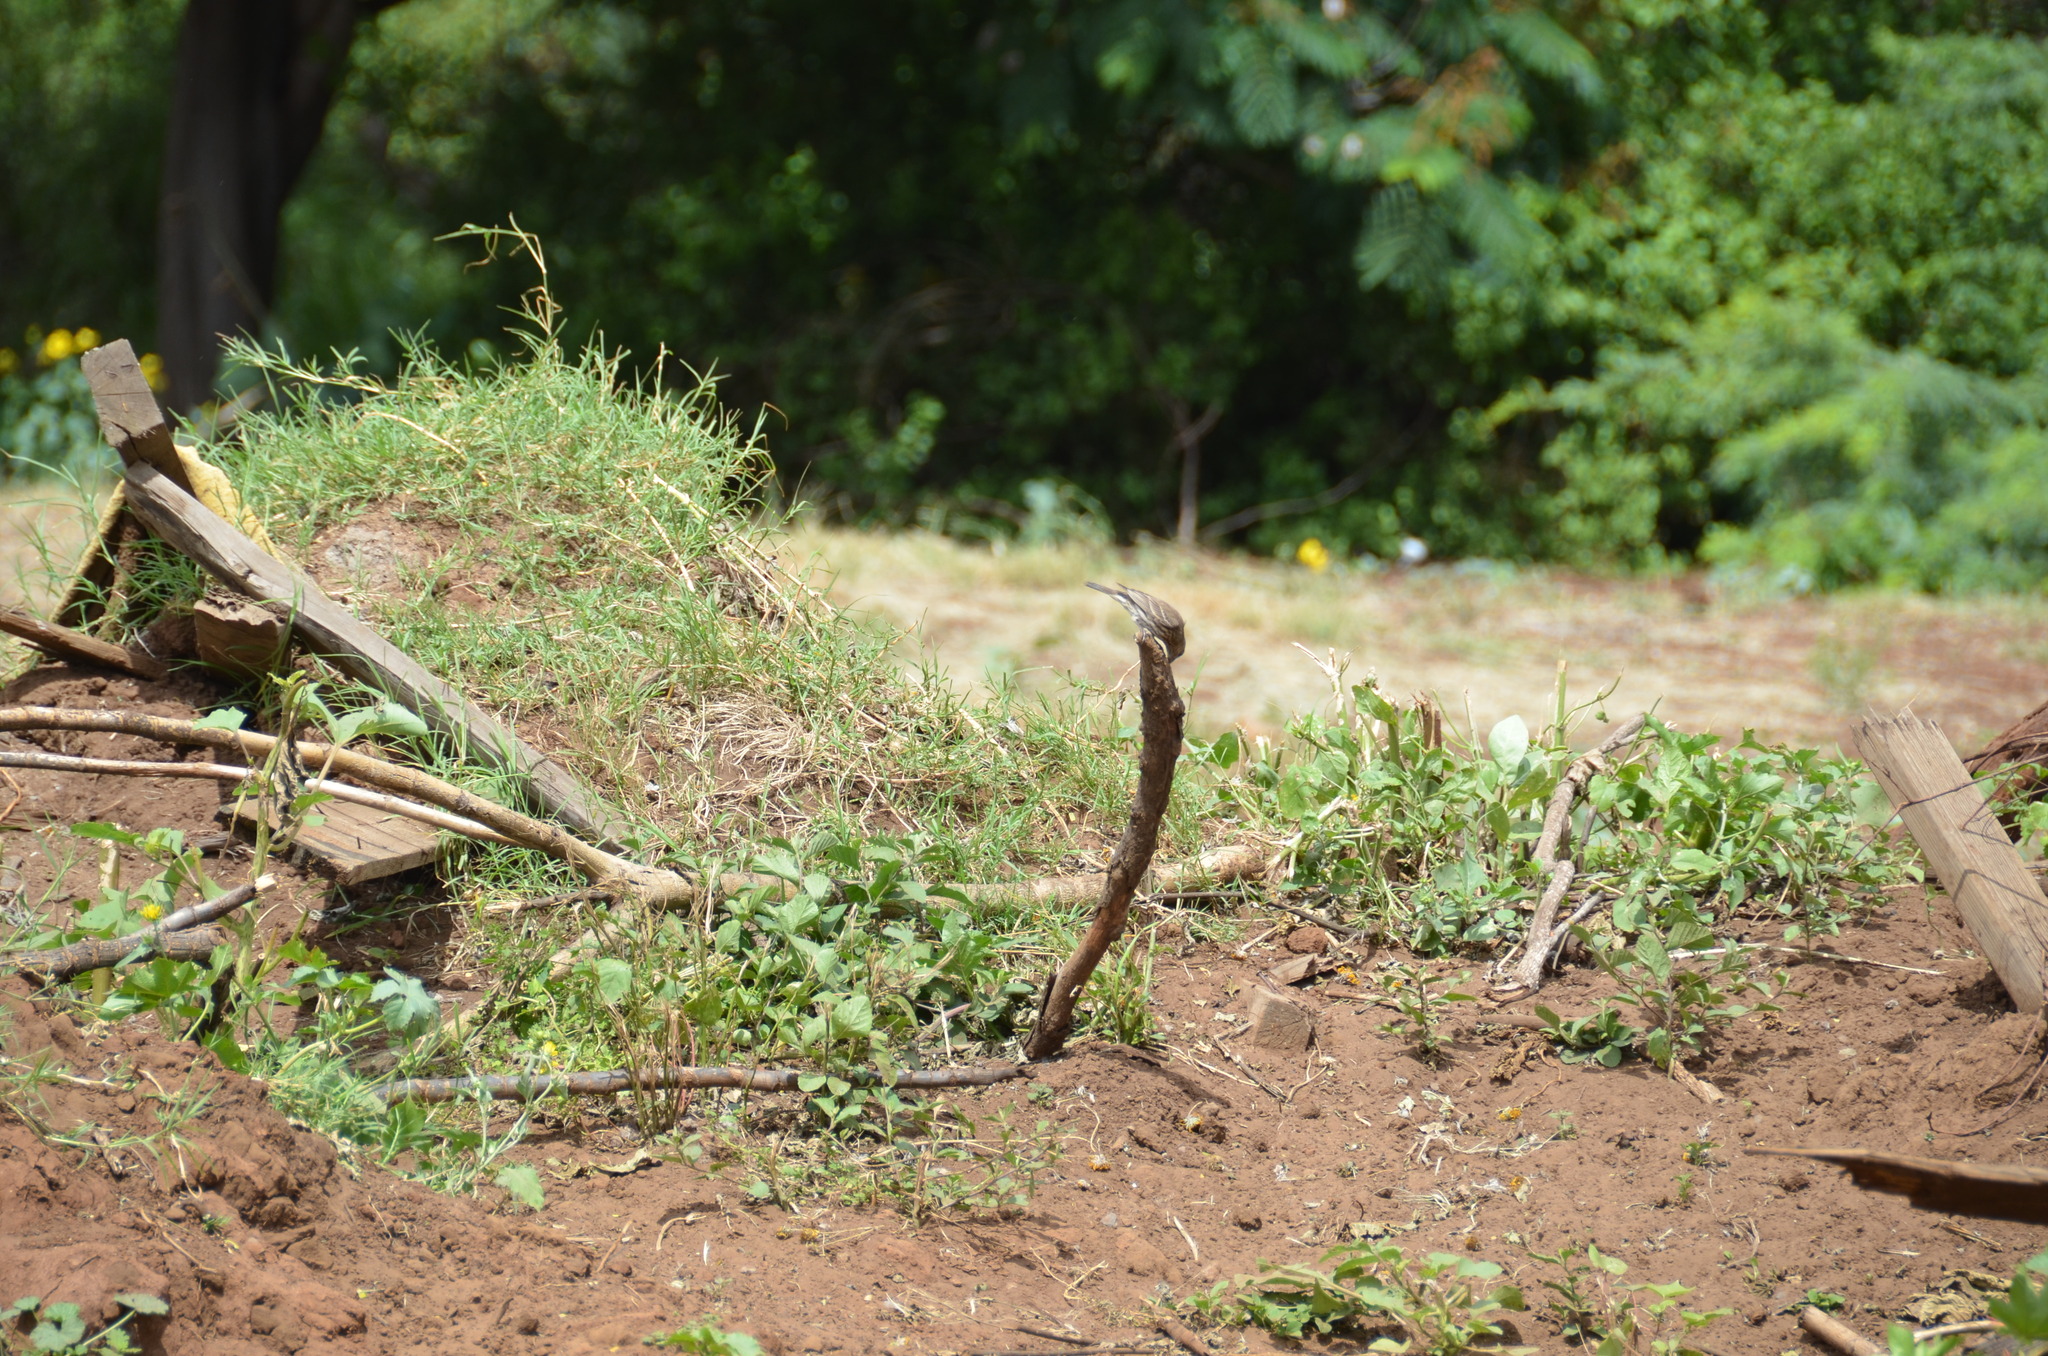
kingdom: Animalia
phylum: Chordata
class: Aves
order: Passeriformes
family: Fringillidae
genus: Haemorhous
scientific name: Haemorhous mexicanus
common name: House finch
